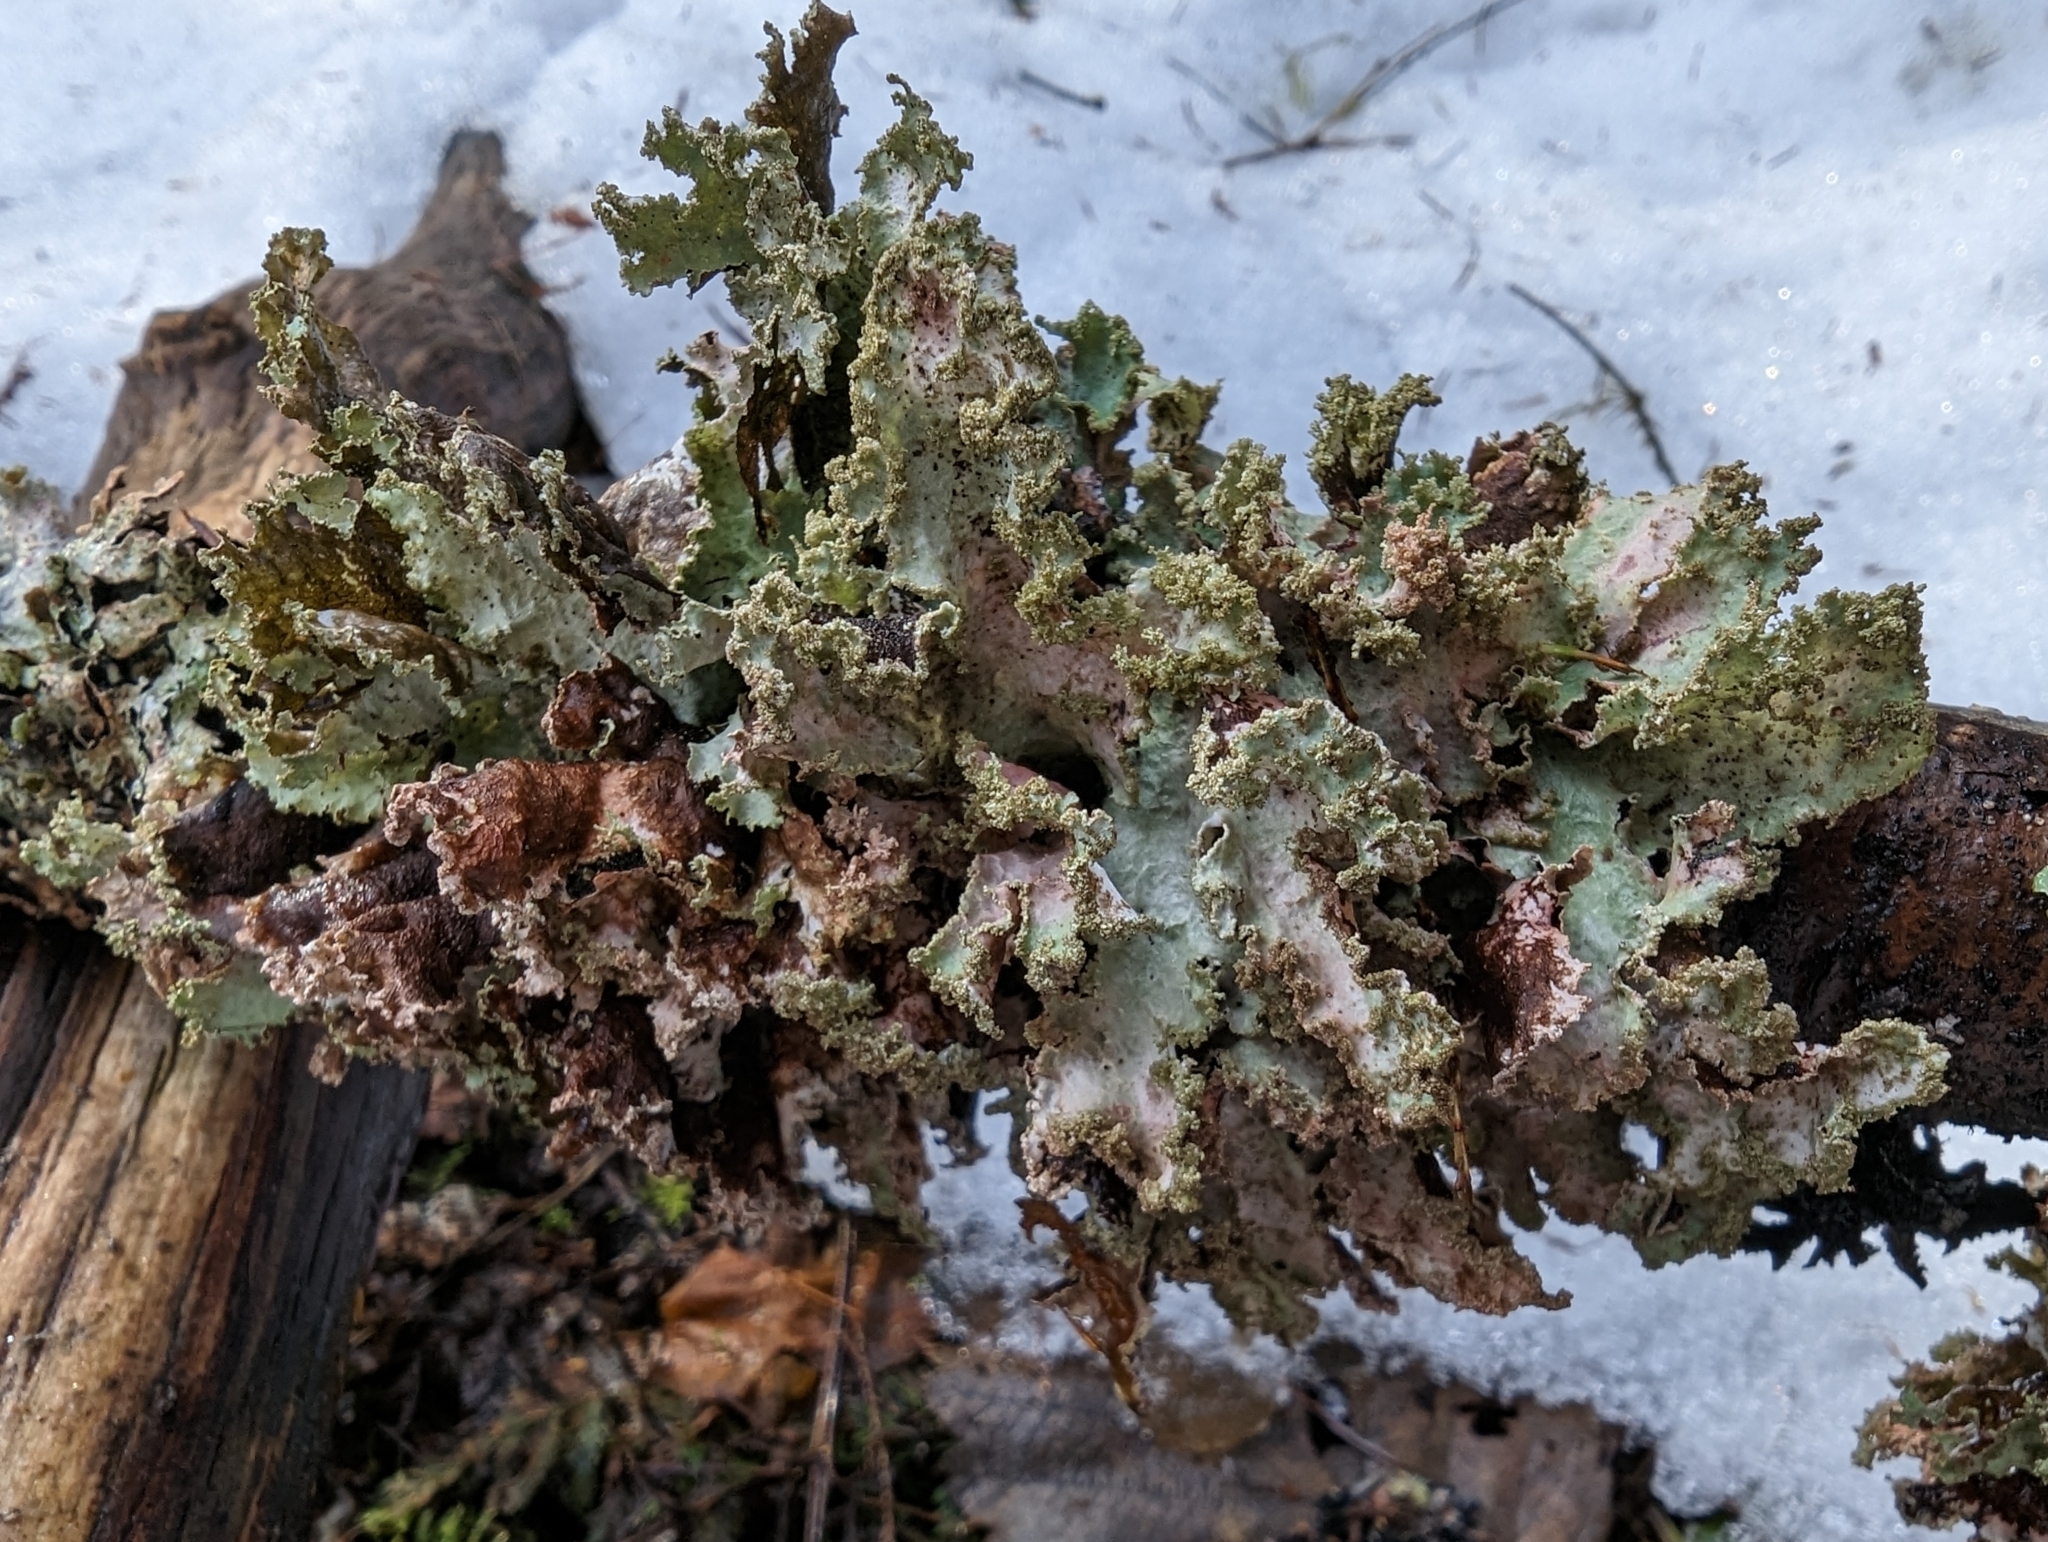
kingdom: Fungi
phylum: Ascomycota
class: Lecanoromycetes
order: Lecanorales
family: Parmeliaceae
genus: Platismatia
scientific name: Platismatia glauca
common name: Varied rag lichen
